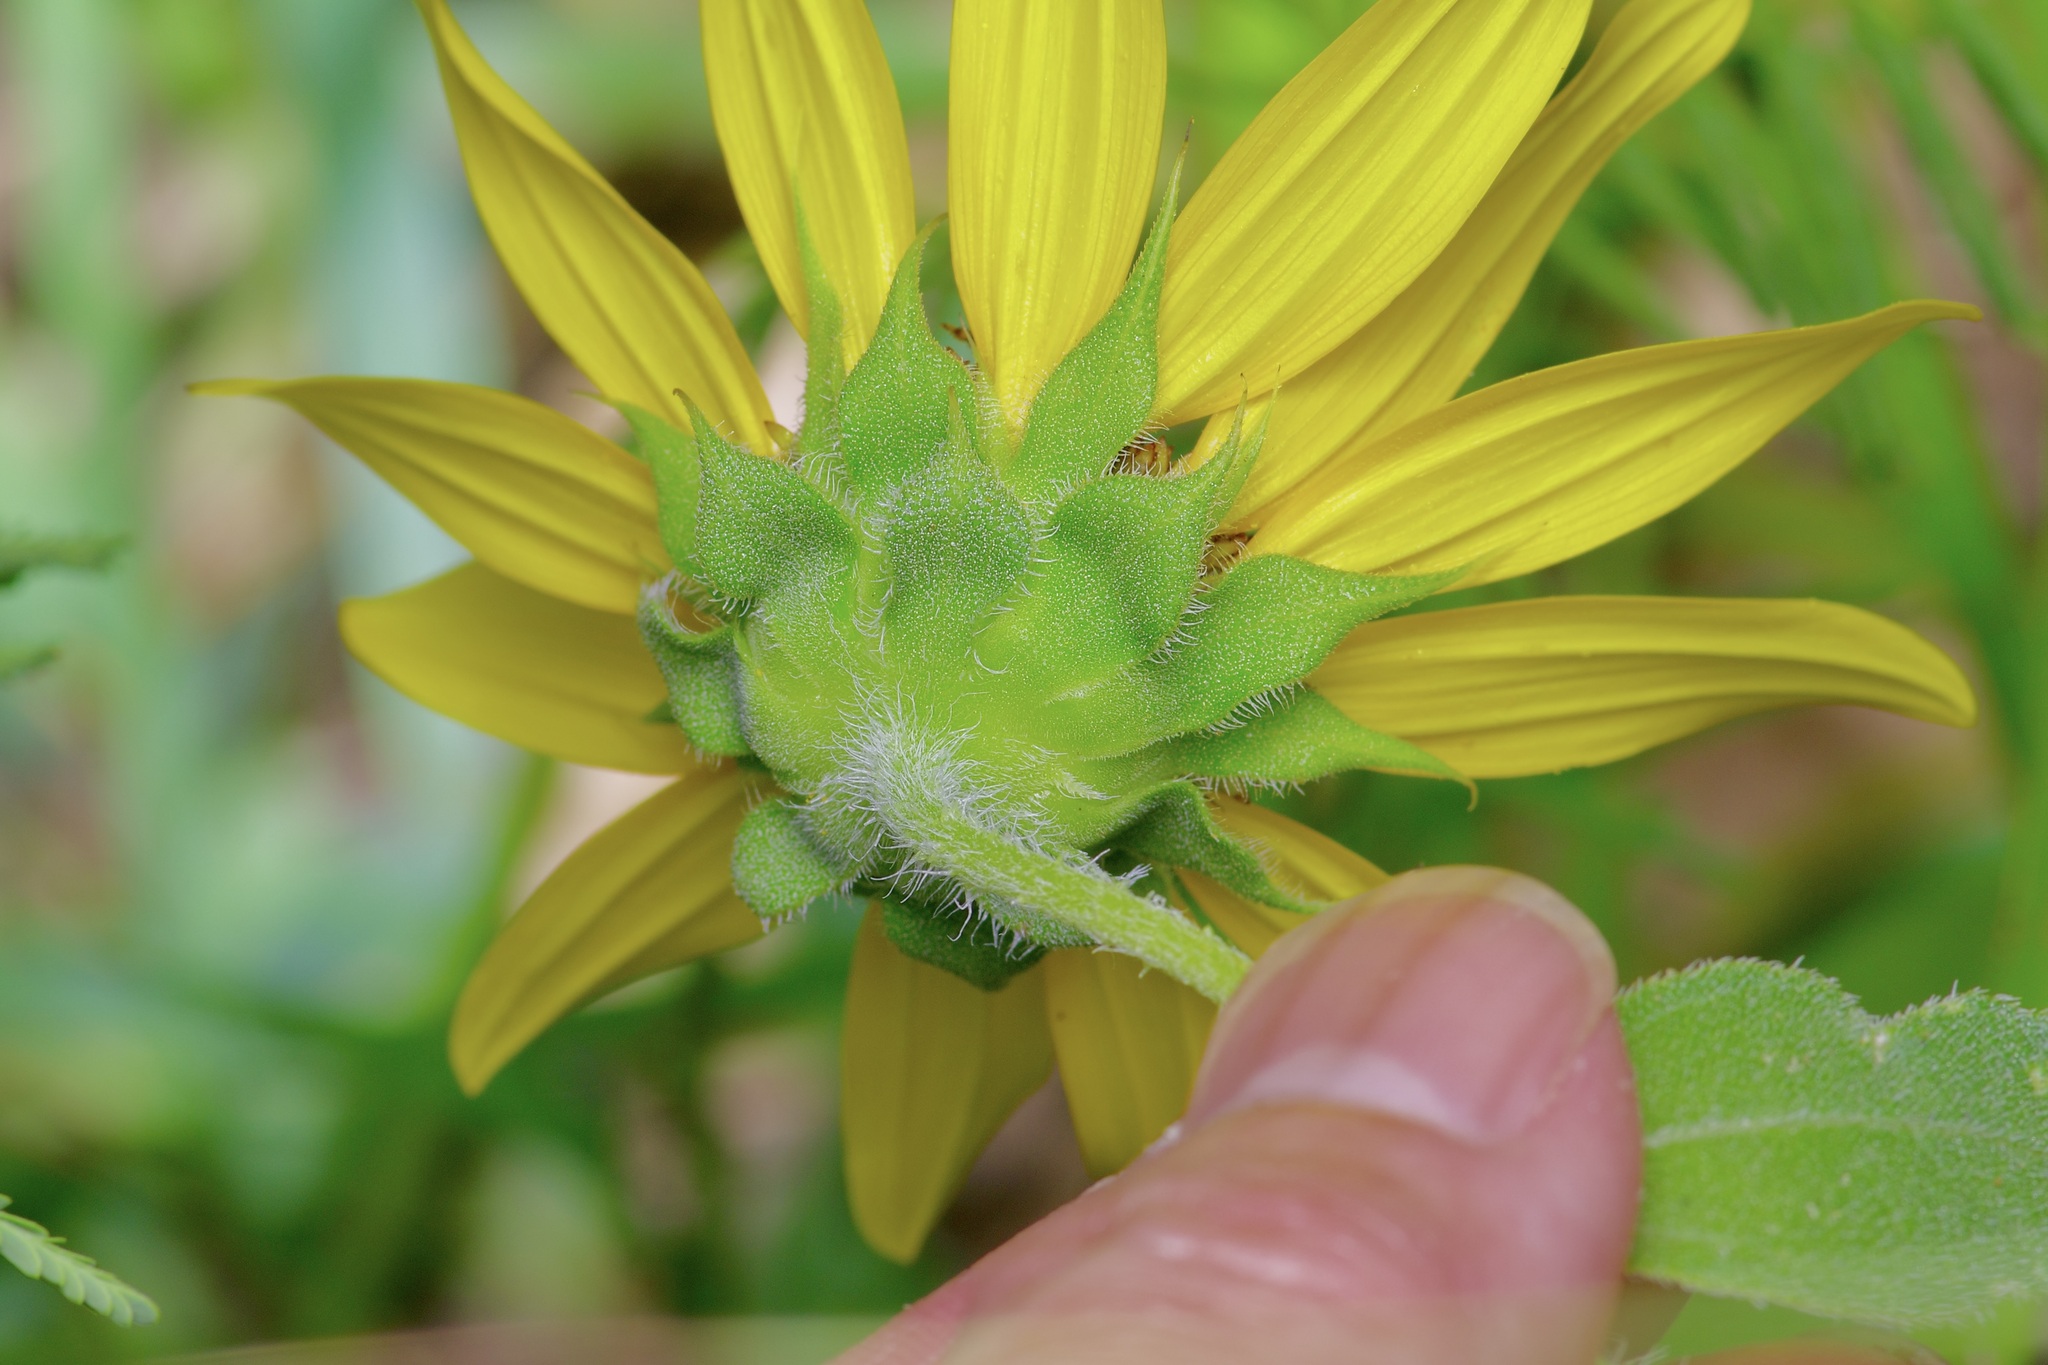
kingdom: Plantae
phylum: Tracheophyta
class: Magnoliopsida
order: Asterales
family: Asteraceae
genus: Helianthus
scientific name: Helianthus annuus
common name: Sunflower
